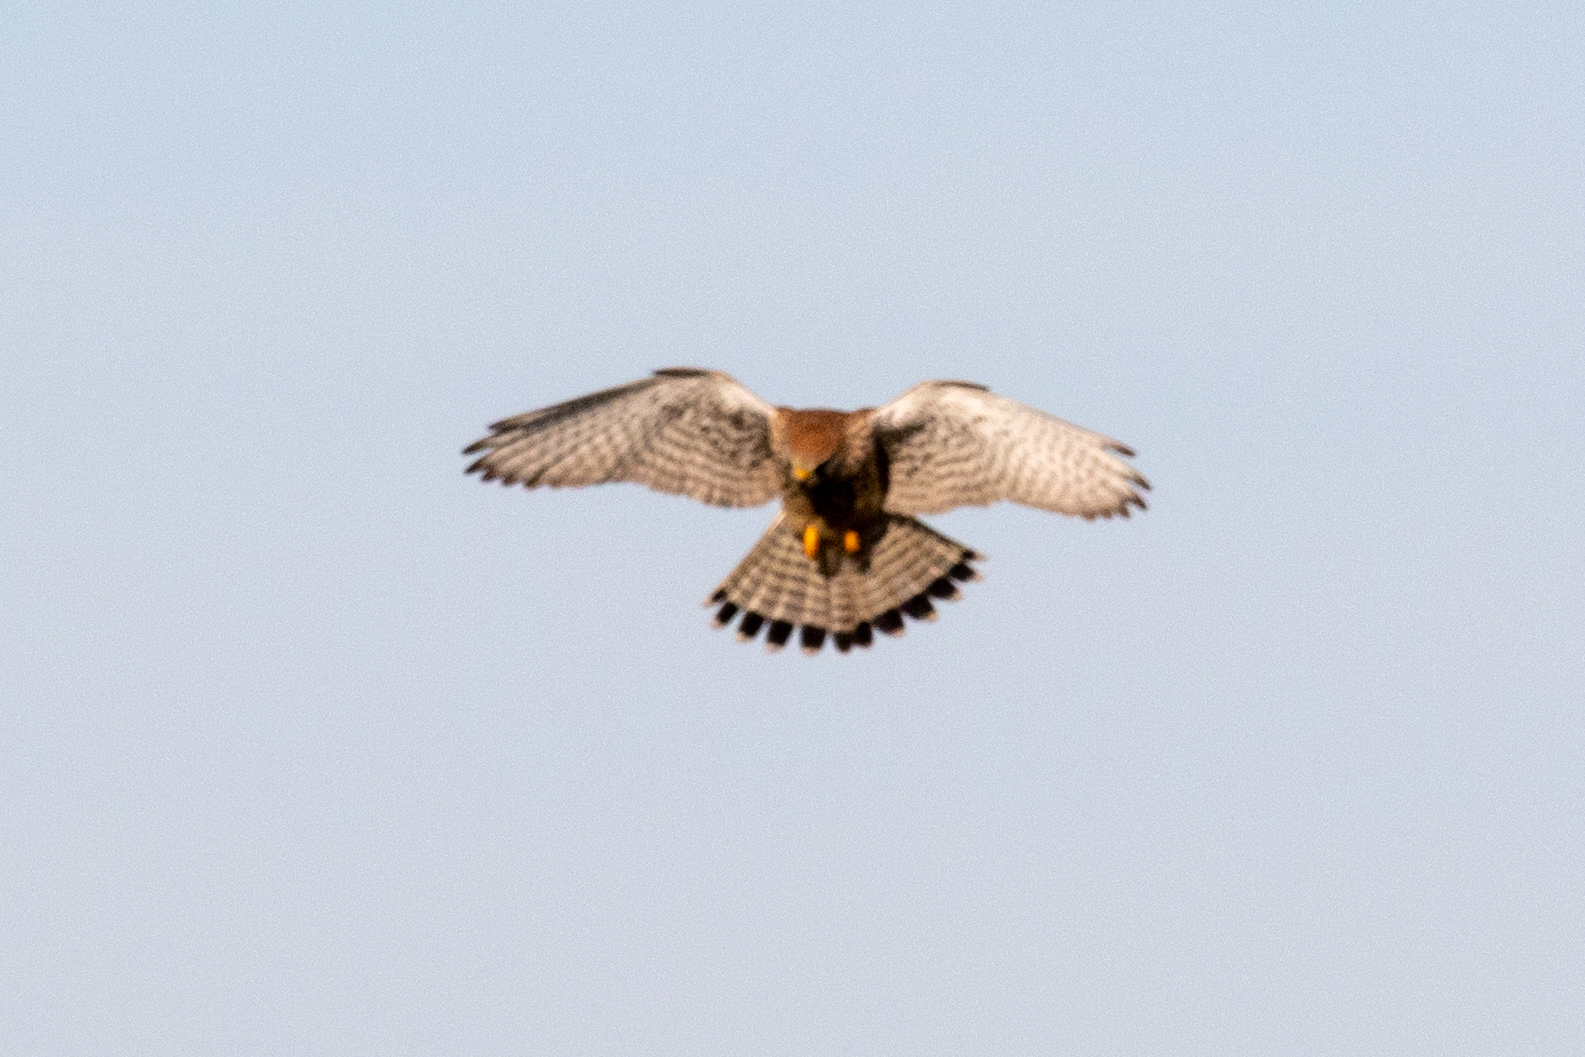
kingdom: Animalia
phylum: Chordata
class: Aves
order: Falconiformes
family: Falconidae
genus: Falco
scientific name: Falco tinnunculus
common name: Common kestrel
